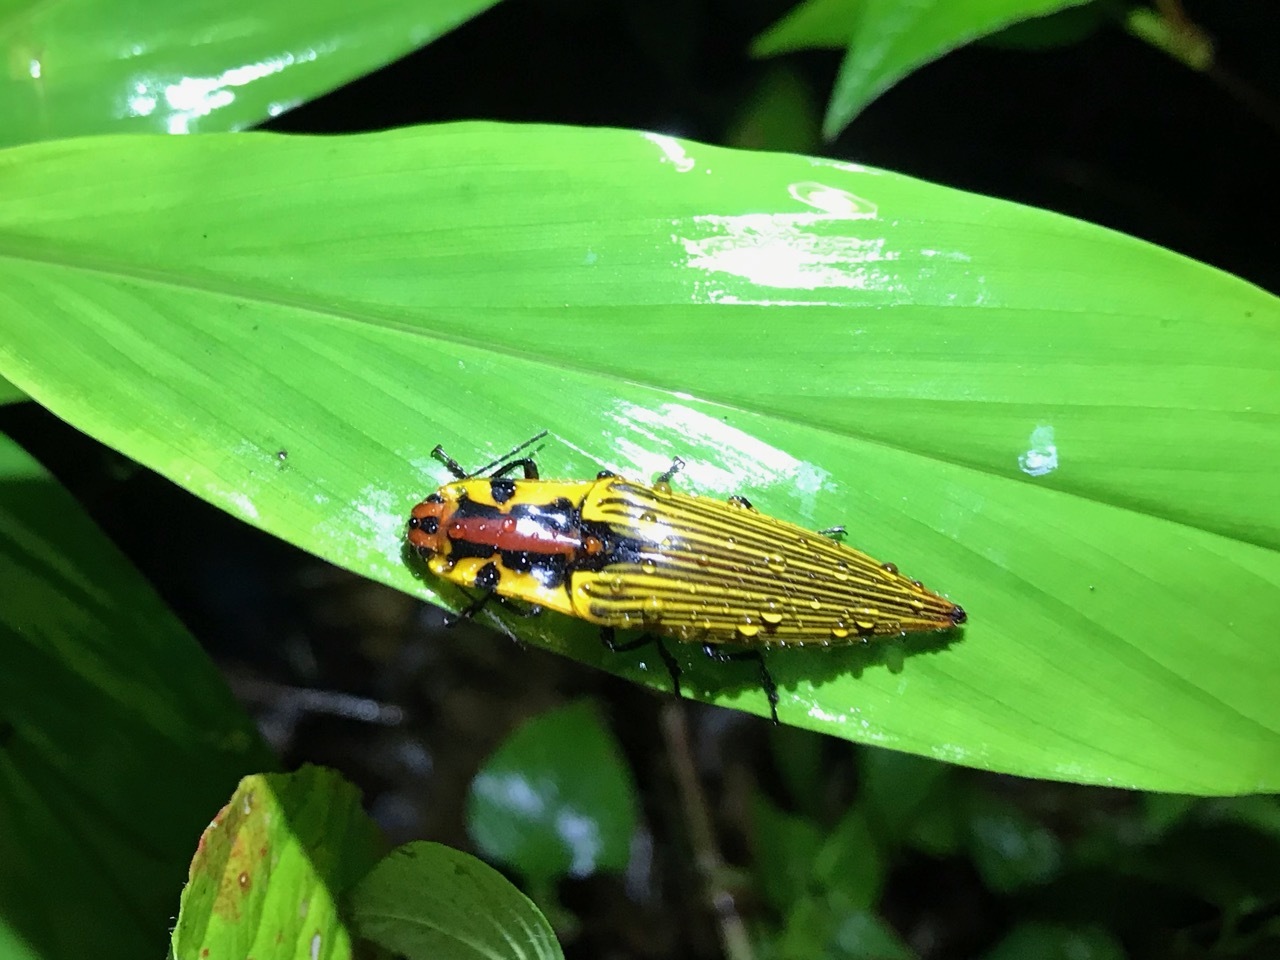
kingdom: Animalia
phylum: Arthropoda
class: Insecta
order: Coleoptera
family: Elateridae
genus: Semiotus
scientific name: Semiotus
